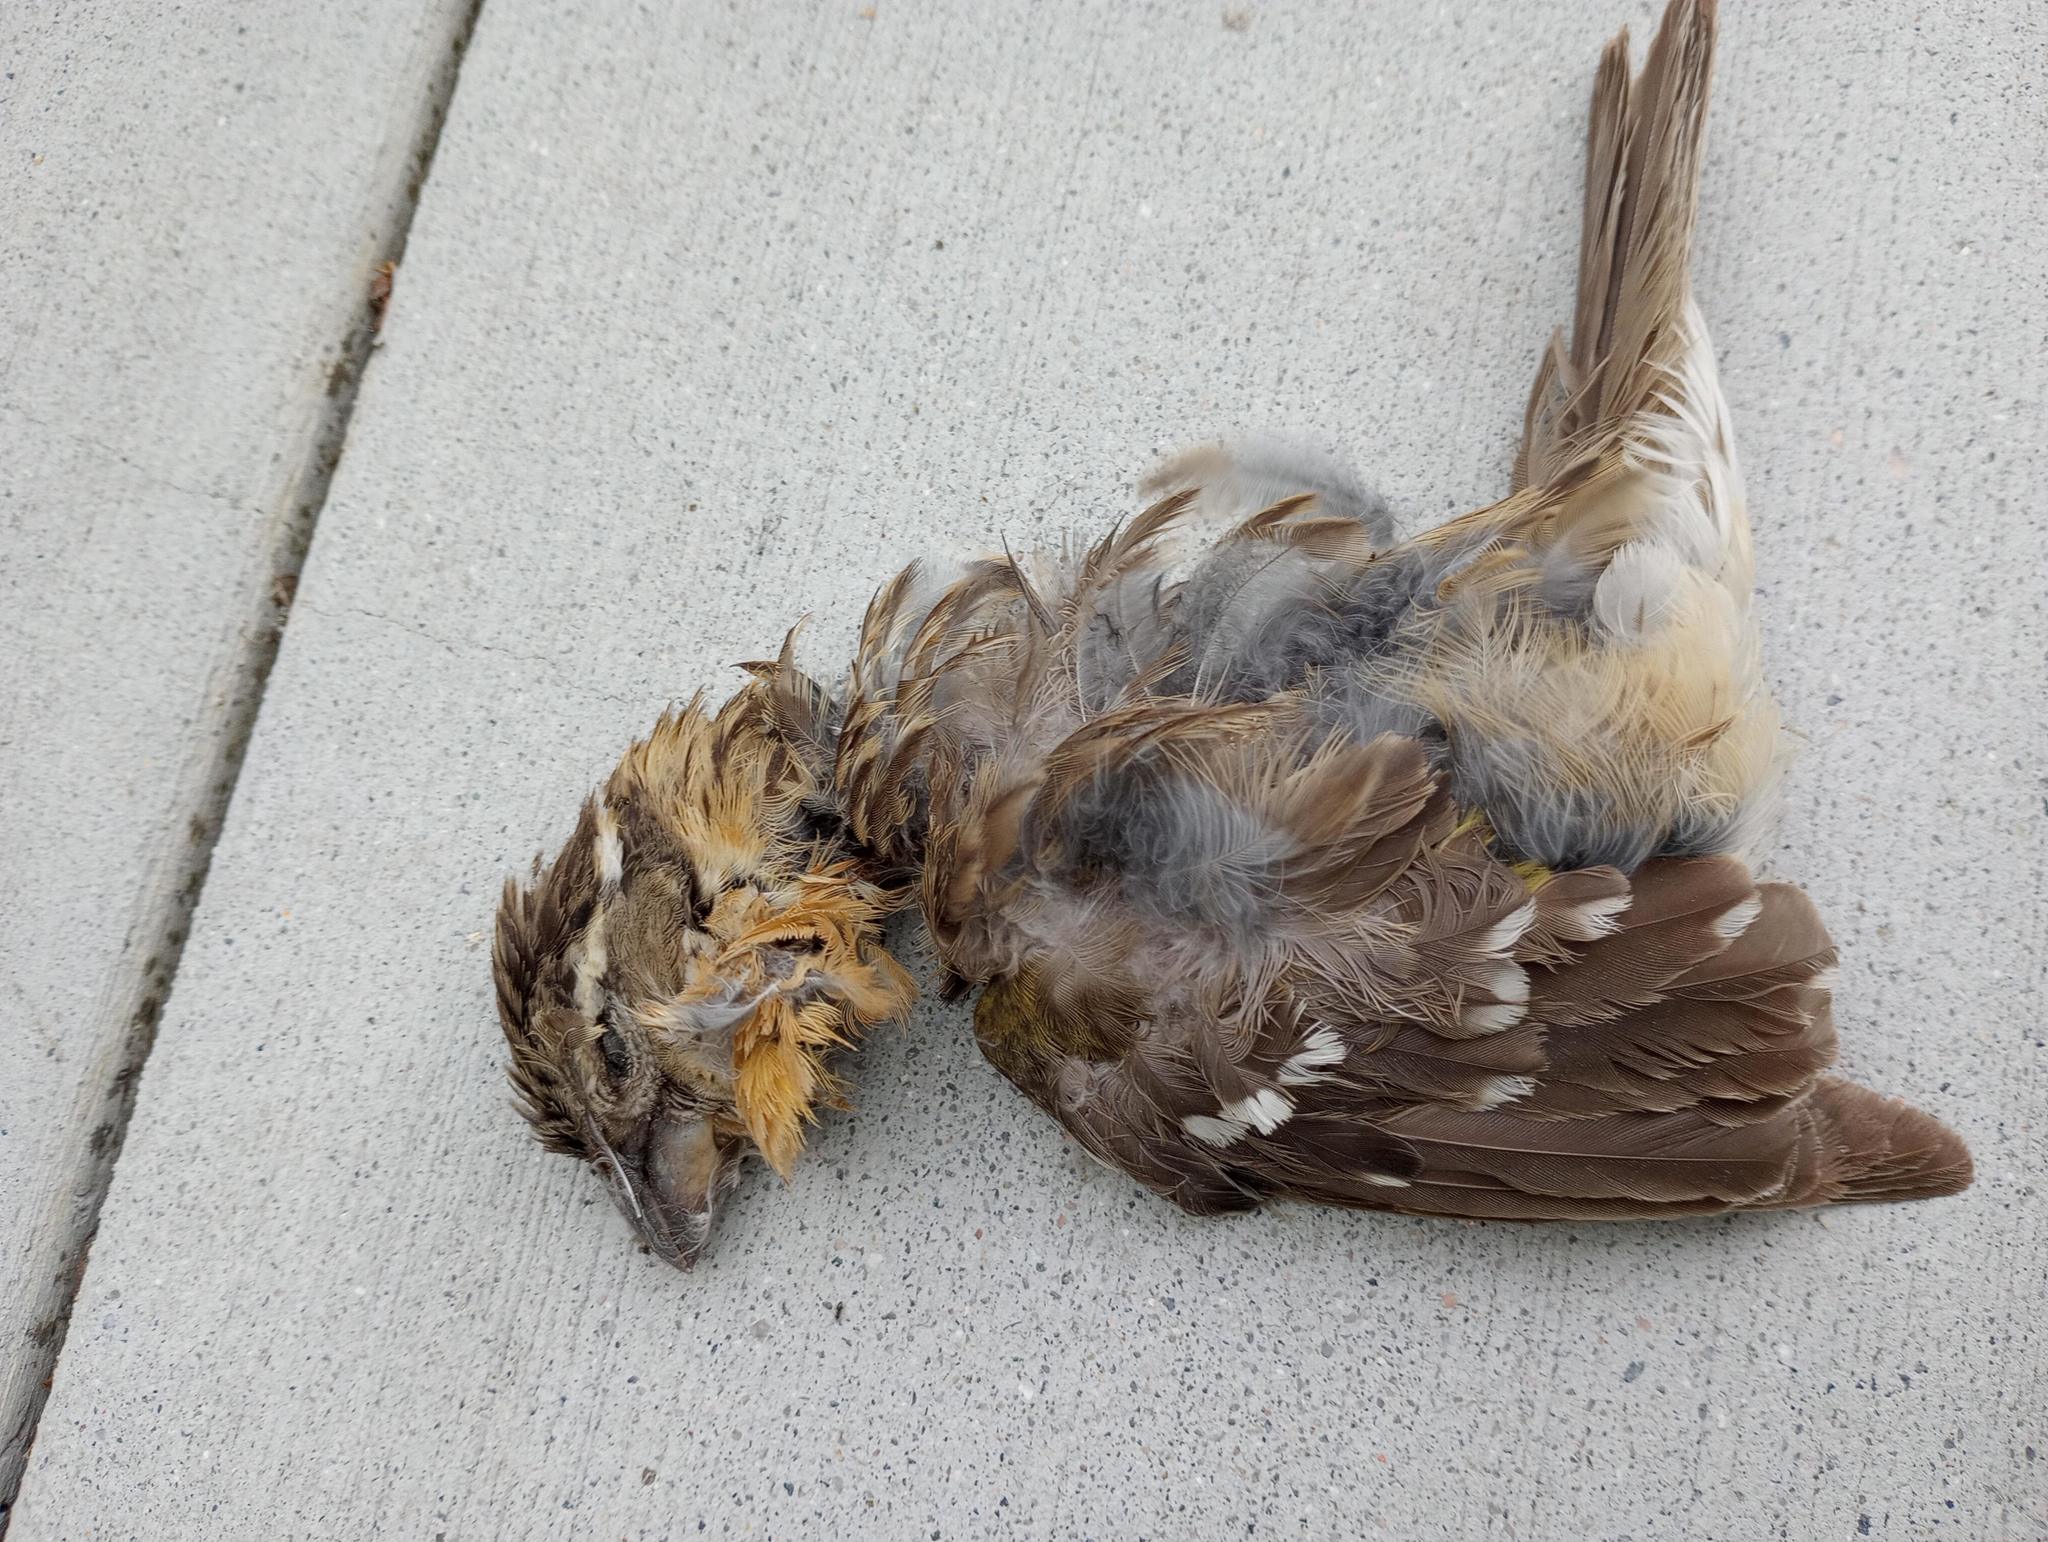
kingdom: Animalia
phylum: Chordata
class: Aves
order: Passeriformes
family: Cardinalidae
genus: Pheucticus
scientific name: Pheucticus melanocephalus
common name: Black-headed grosbeak
